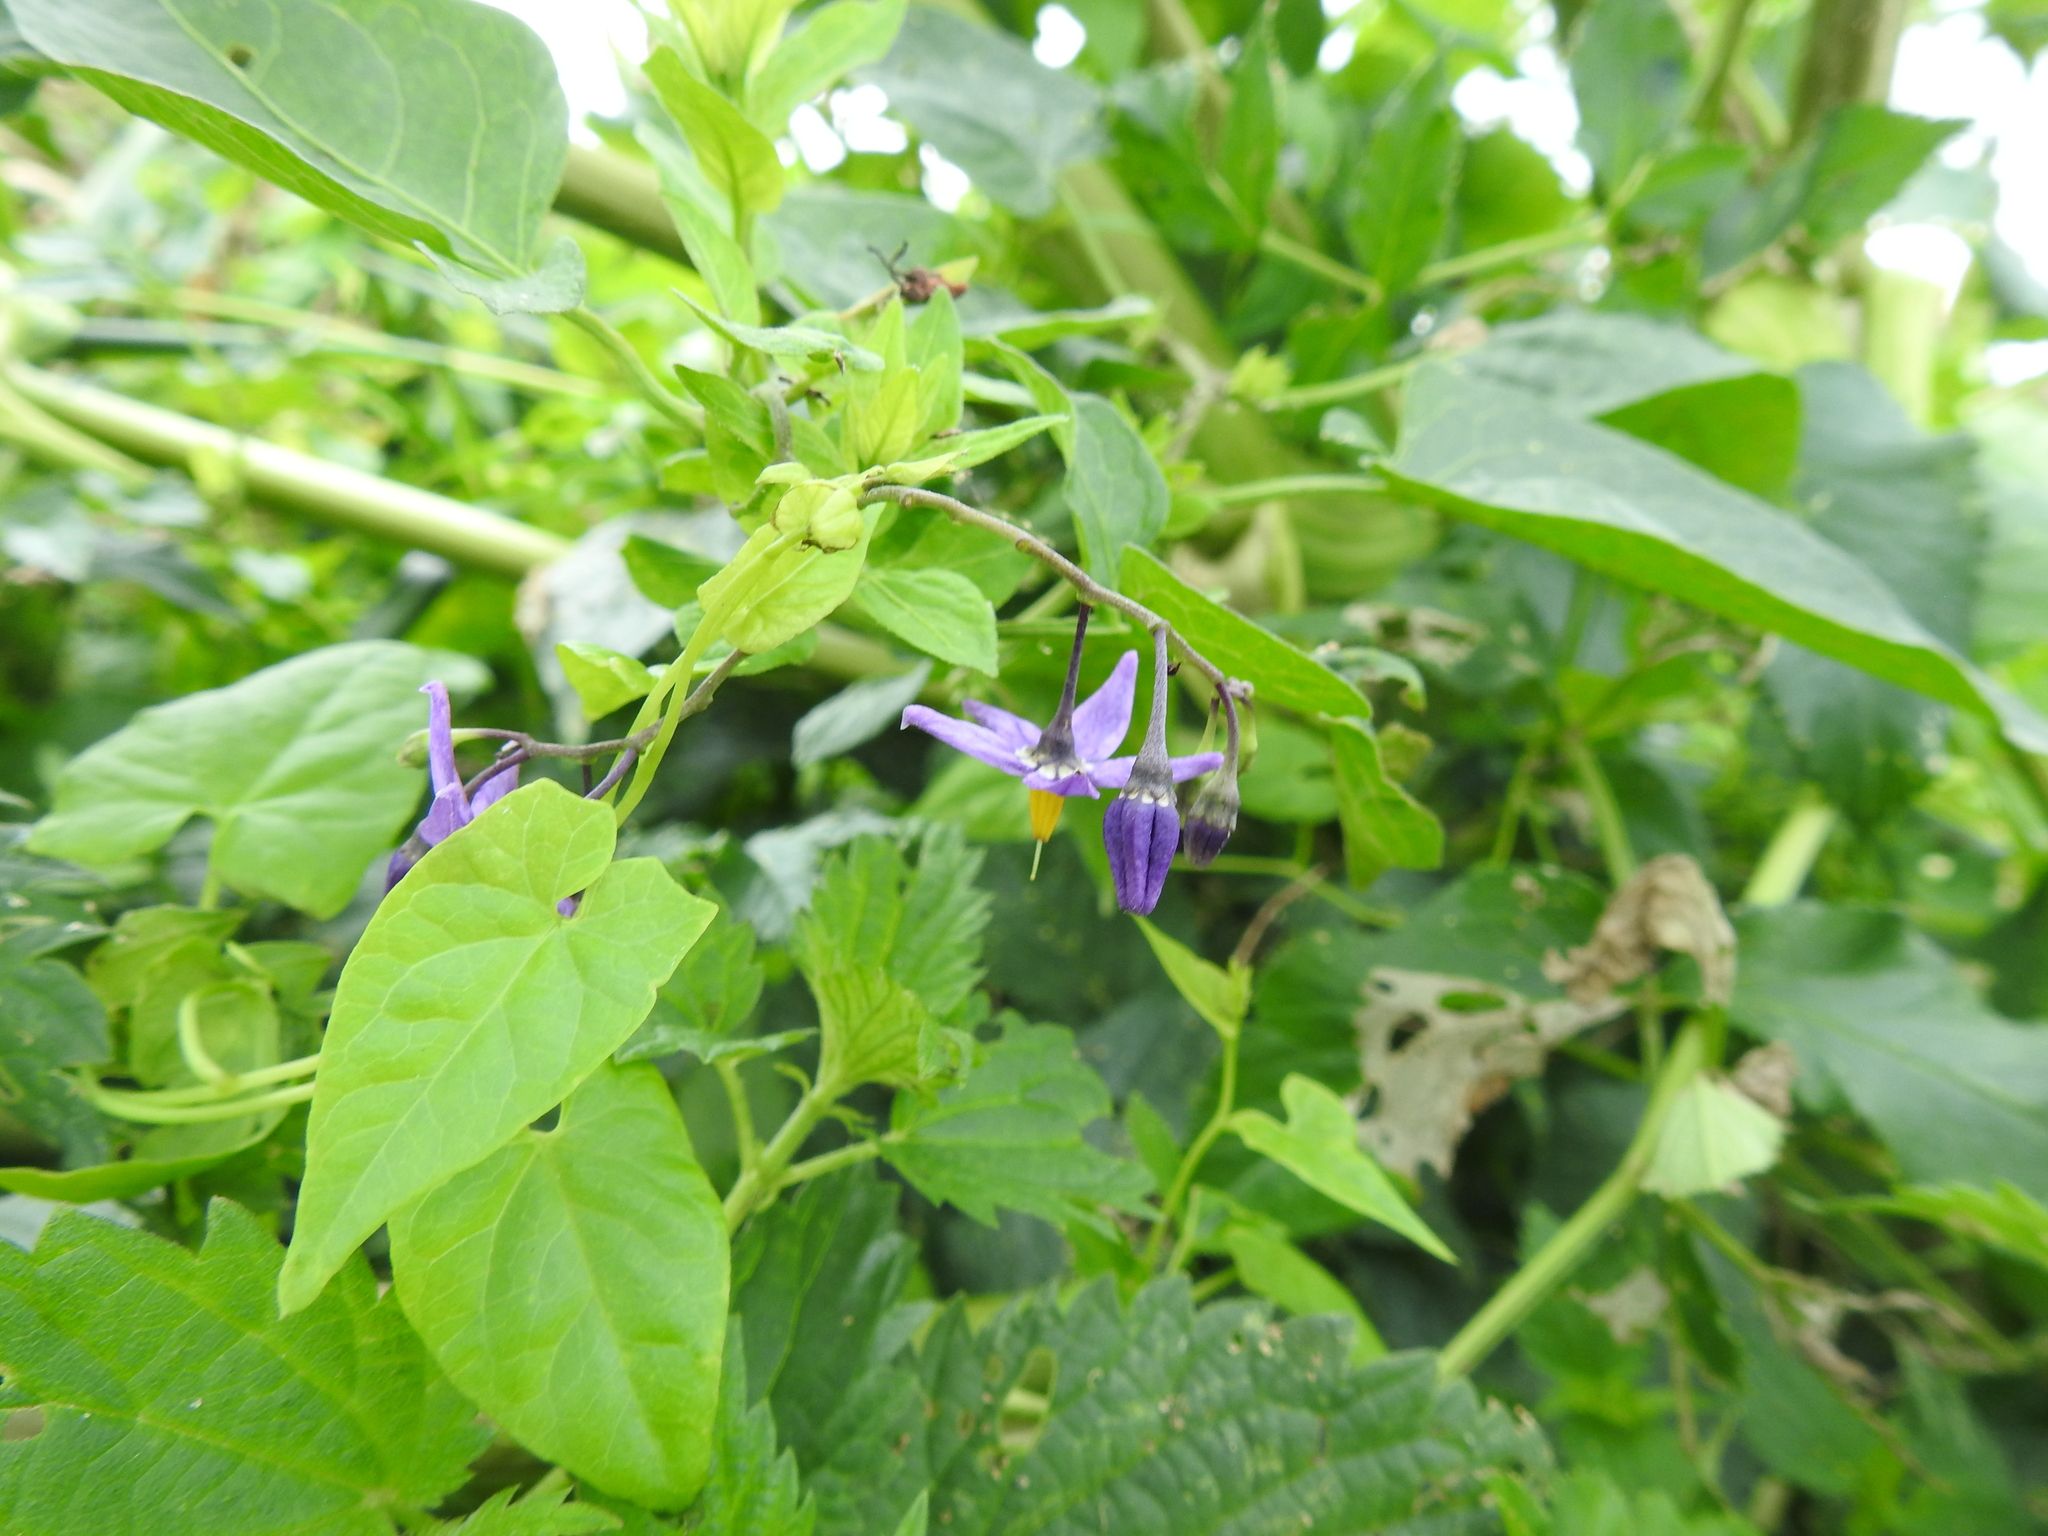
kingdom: Plantae
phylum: Tracheophyta
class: Magnoliopsida
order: Solanales
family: Solanaceae
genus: Solanum
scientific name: Solanum dulcamara
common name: Climbing nightshade
